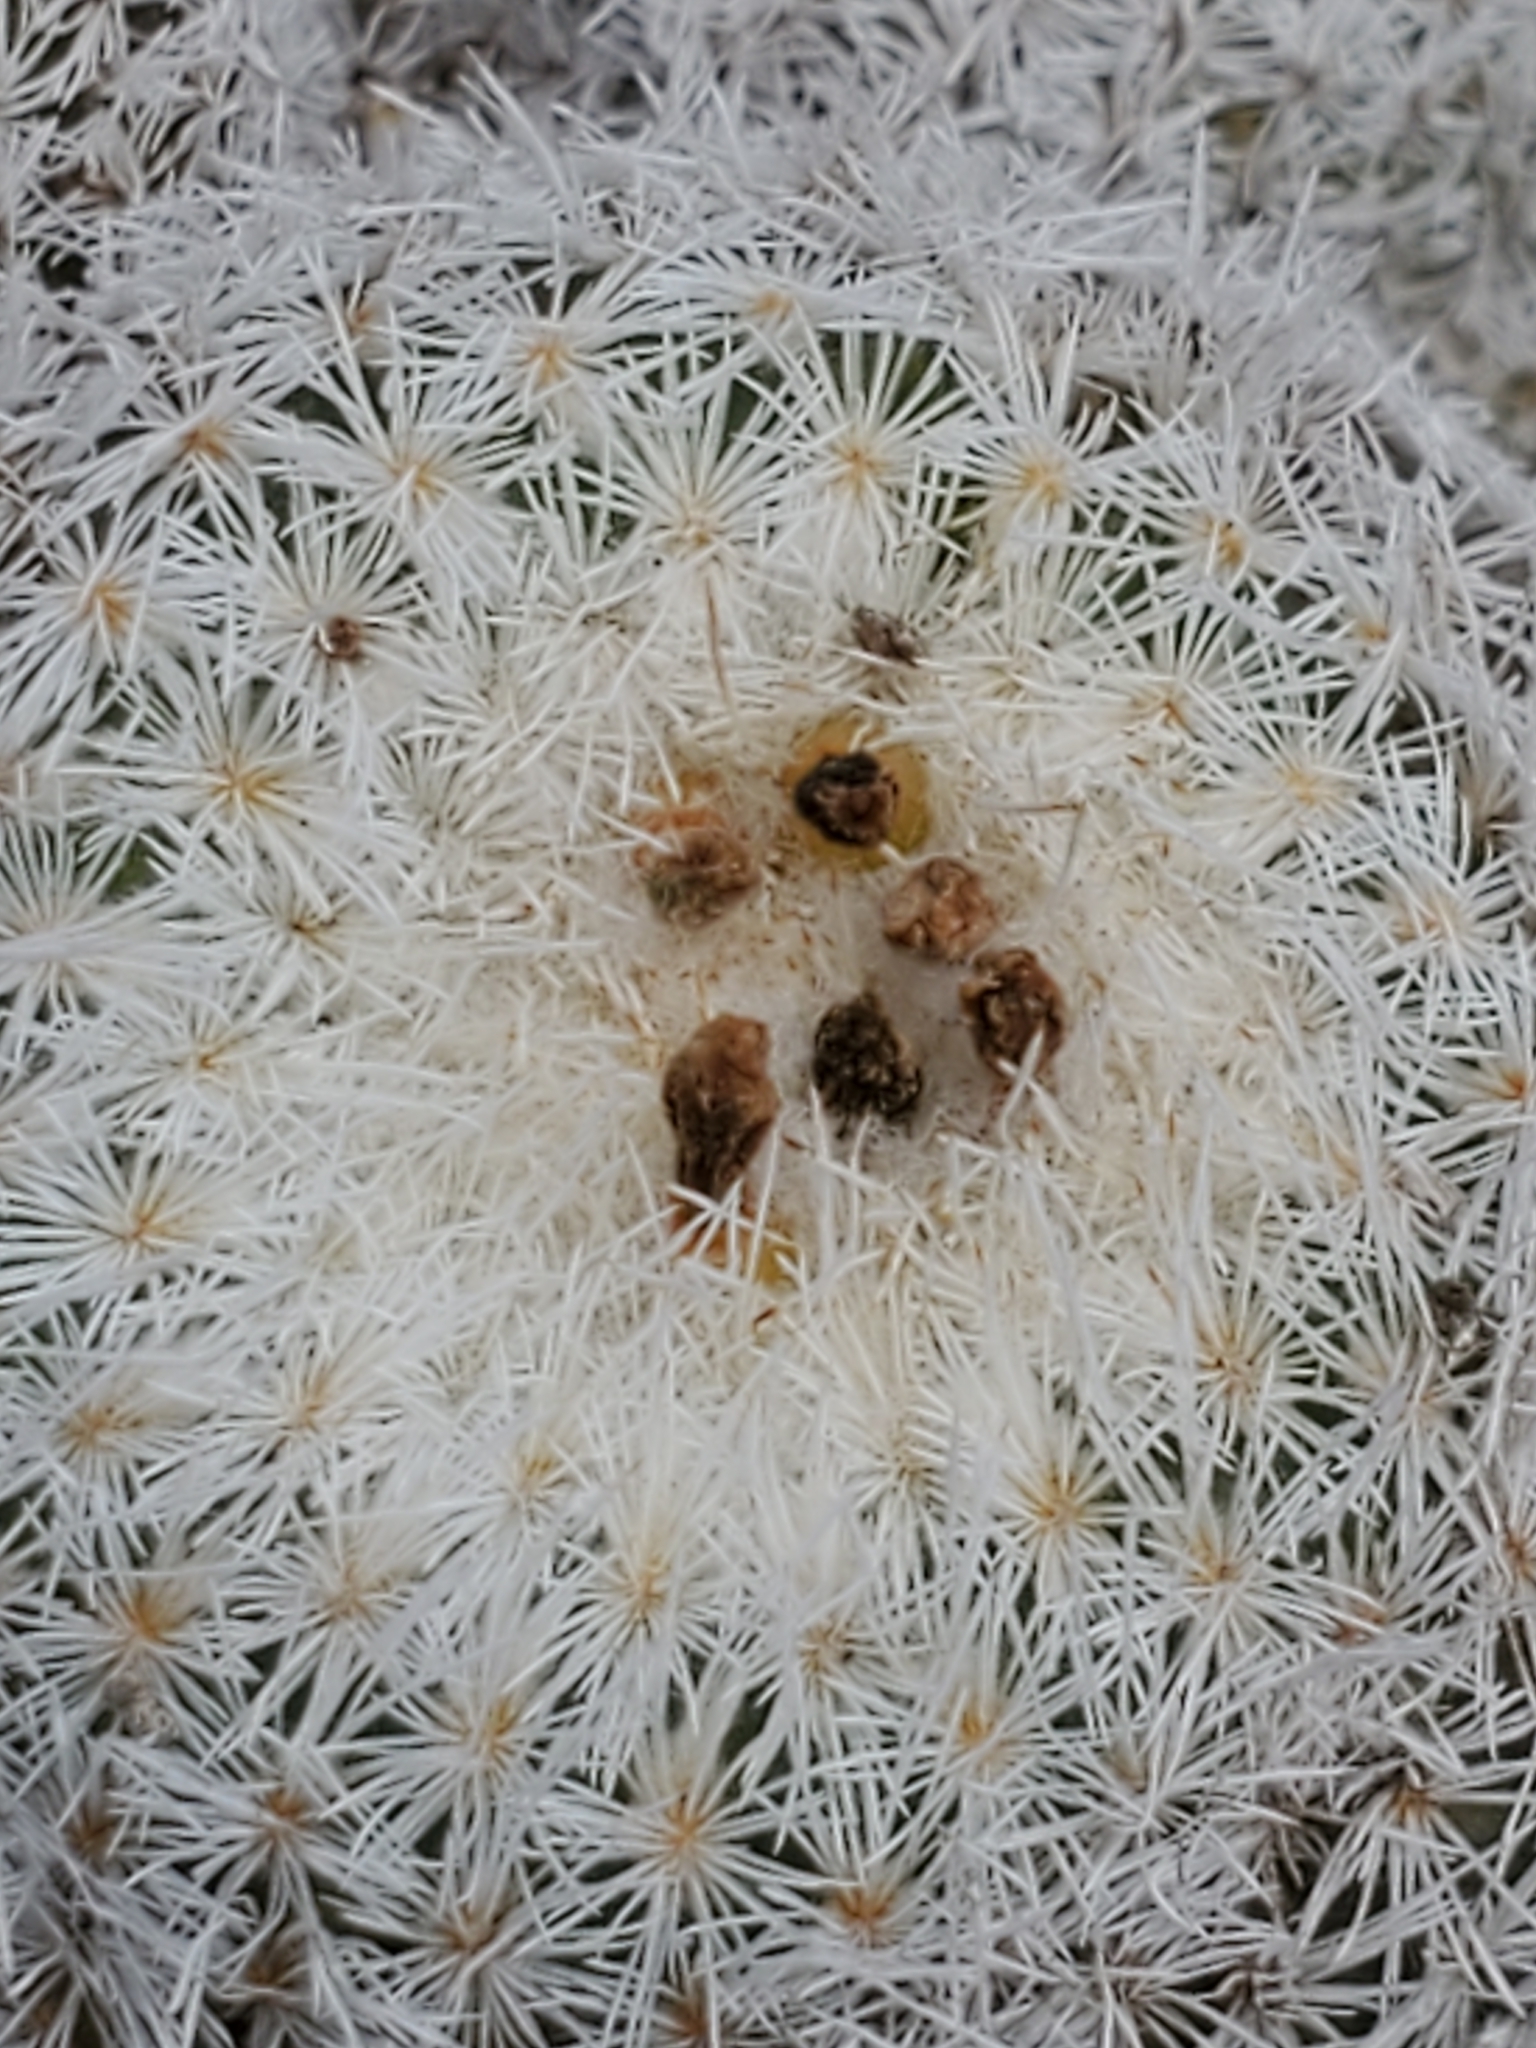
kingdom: Plantae
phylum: Tracheophyta
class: Magnoliopsida
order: Caryophyllales
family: Cactaceae
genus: Epithelantha
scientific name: Epithelantha micromeris
